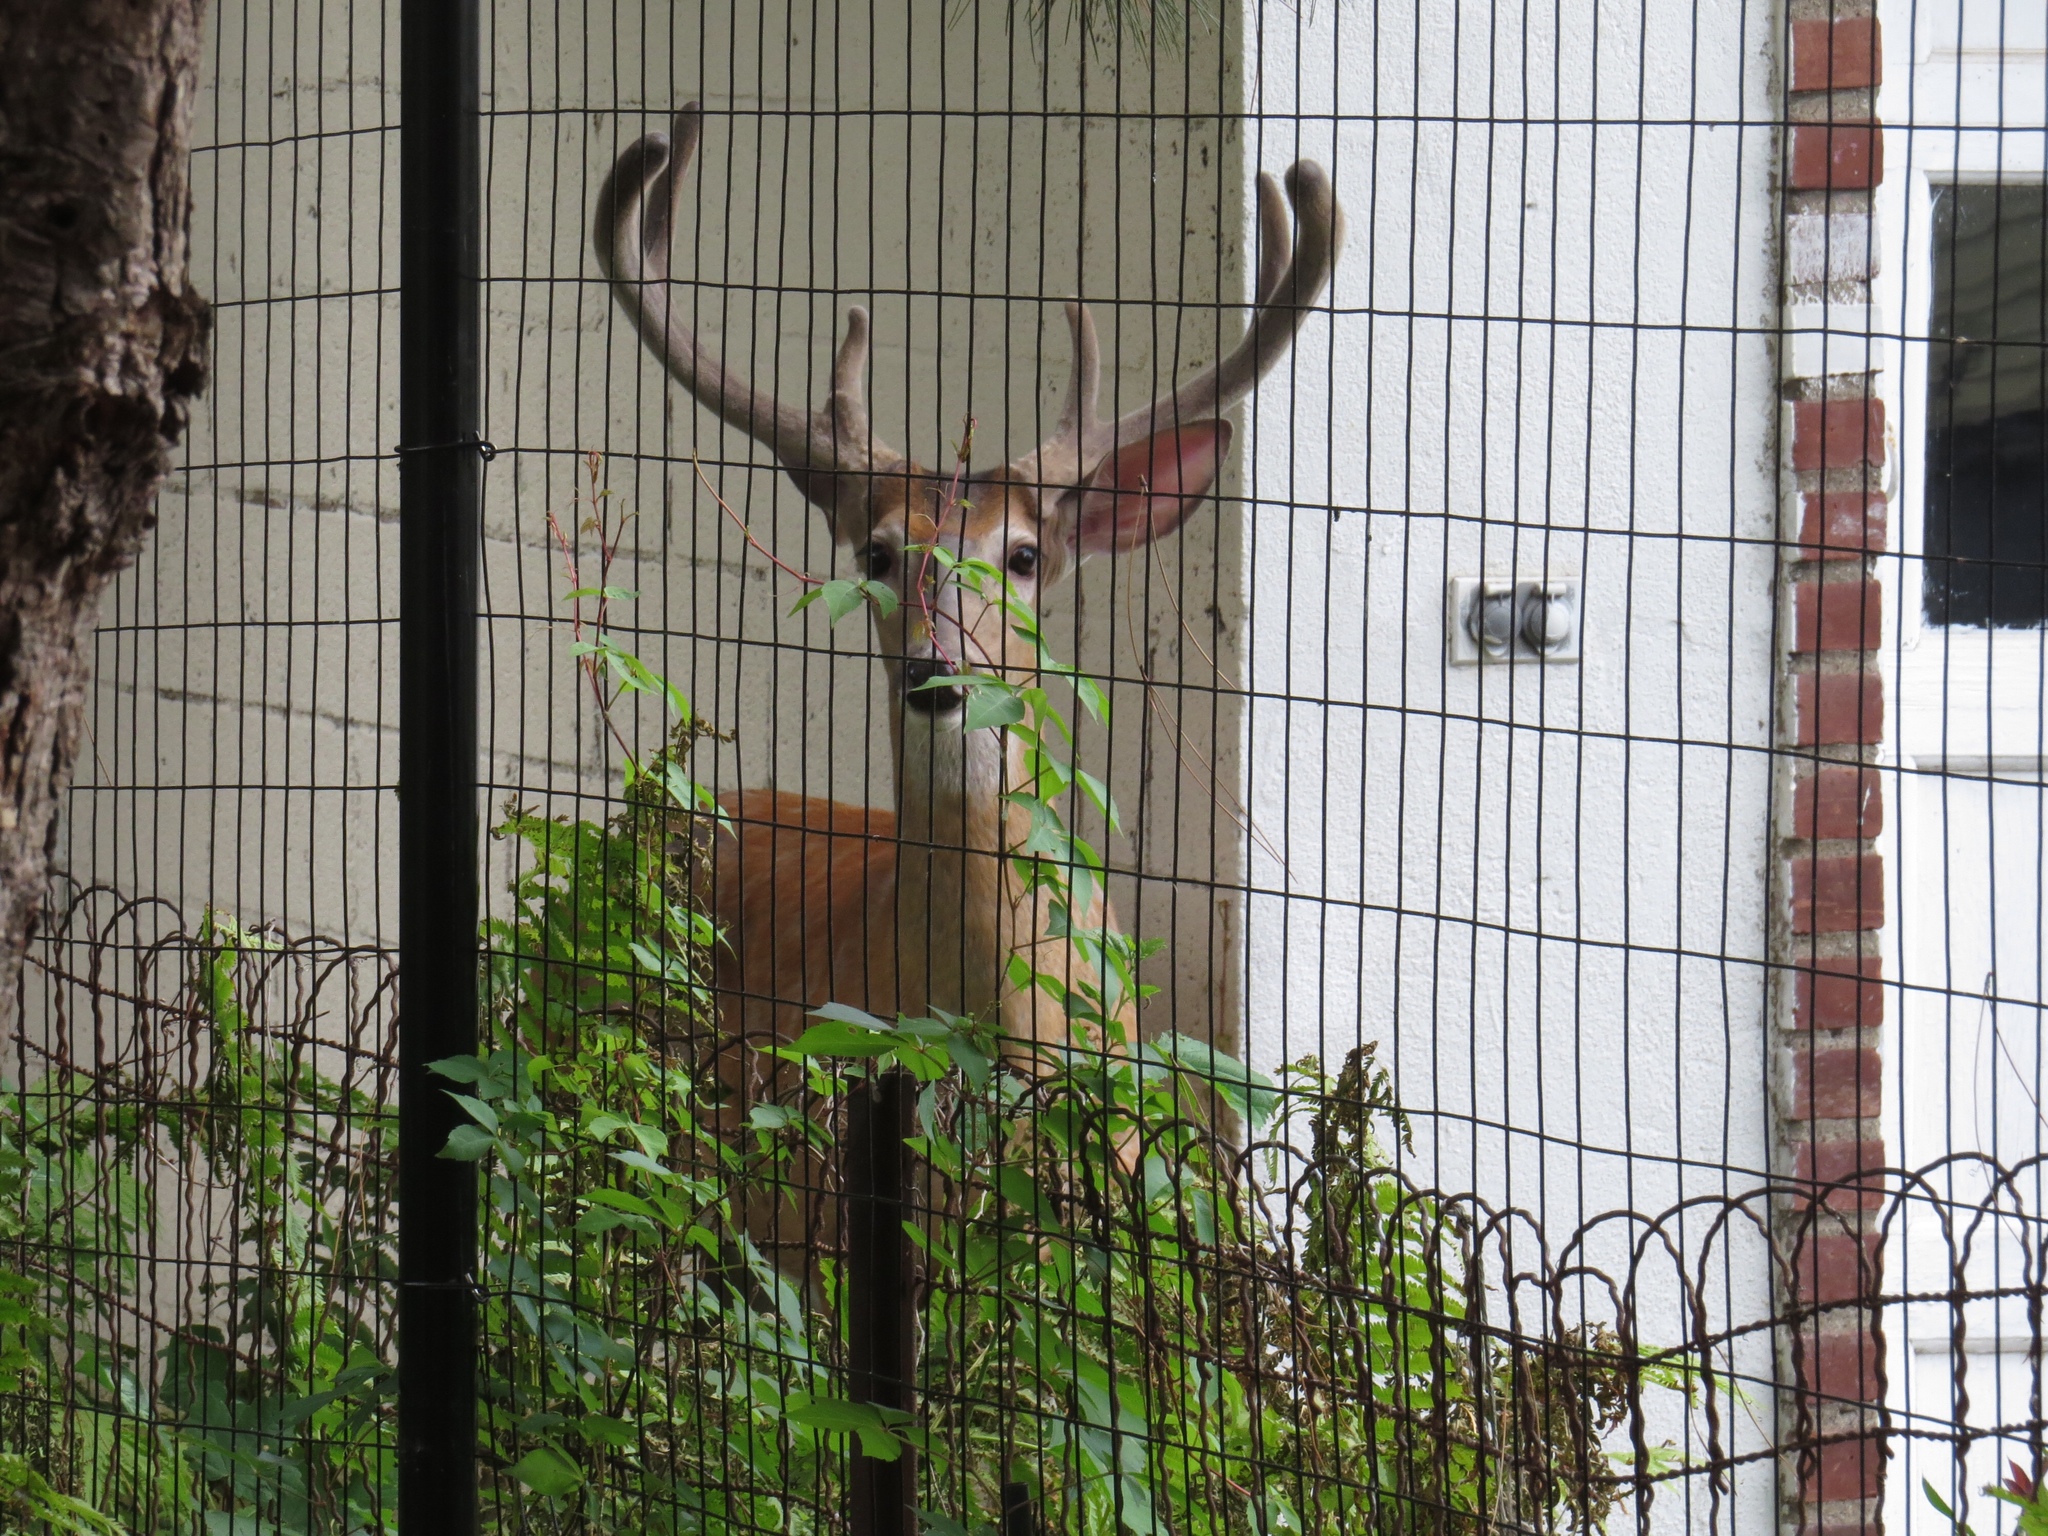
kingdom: Animalia
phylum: Chordata
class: Mammalia
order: Artiodactyla
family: Cervidae
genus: Odocoileus
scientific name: Odocoileus virginianus
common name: White-tailed deer
